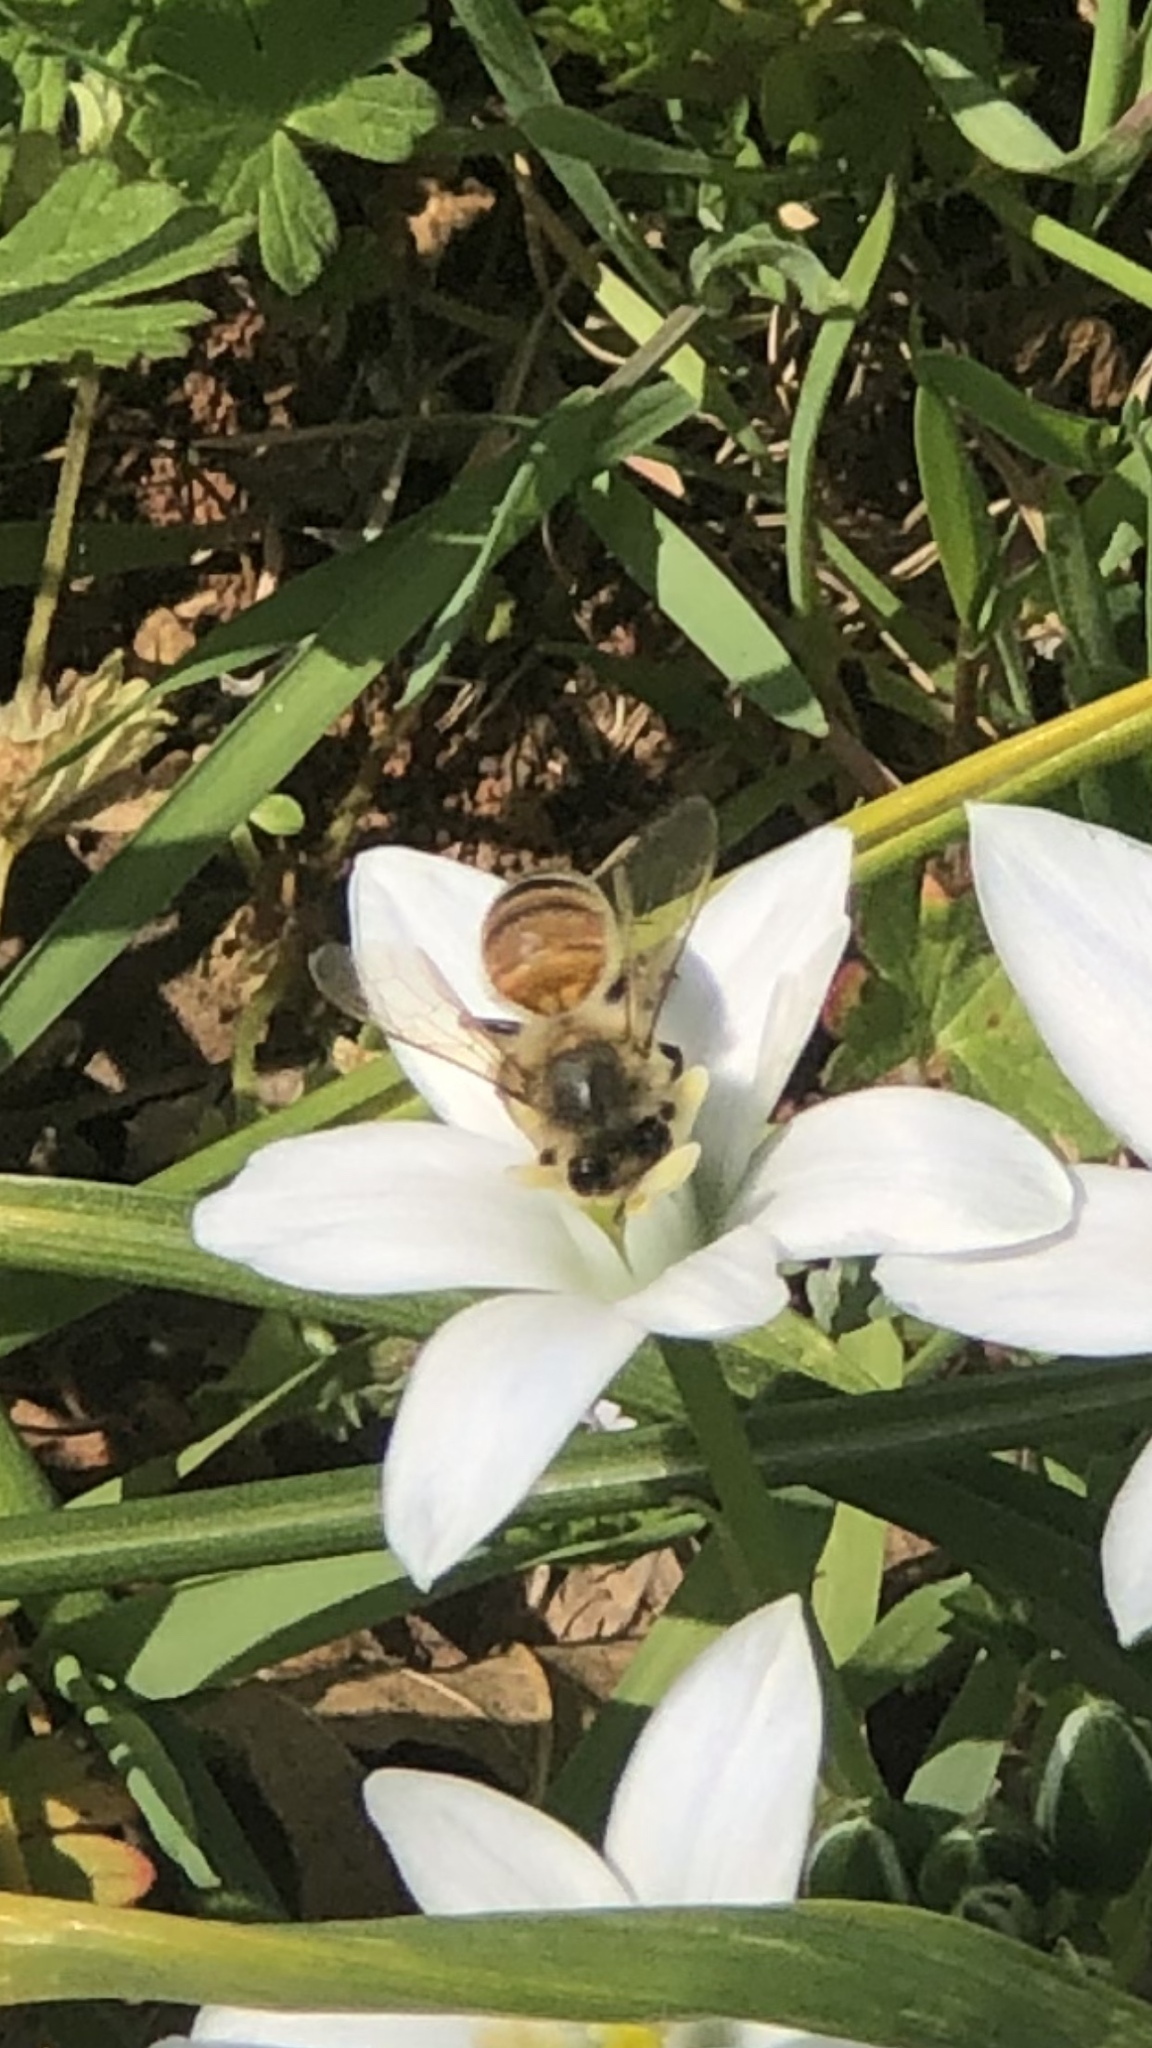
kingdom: Animalia
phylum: Arthropoda
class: Insecta
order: Hymenoptera
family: Apidae
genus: Apis
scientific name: Apis mellifera
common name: Honey bee
